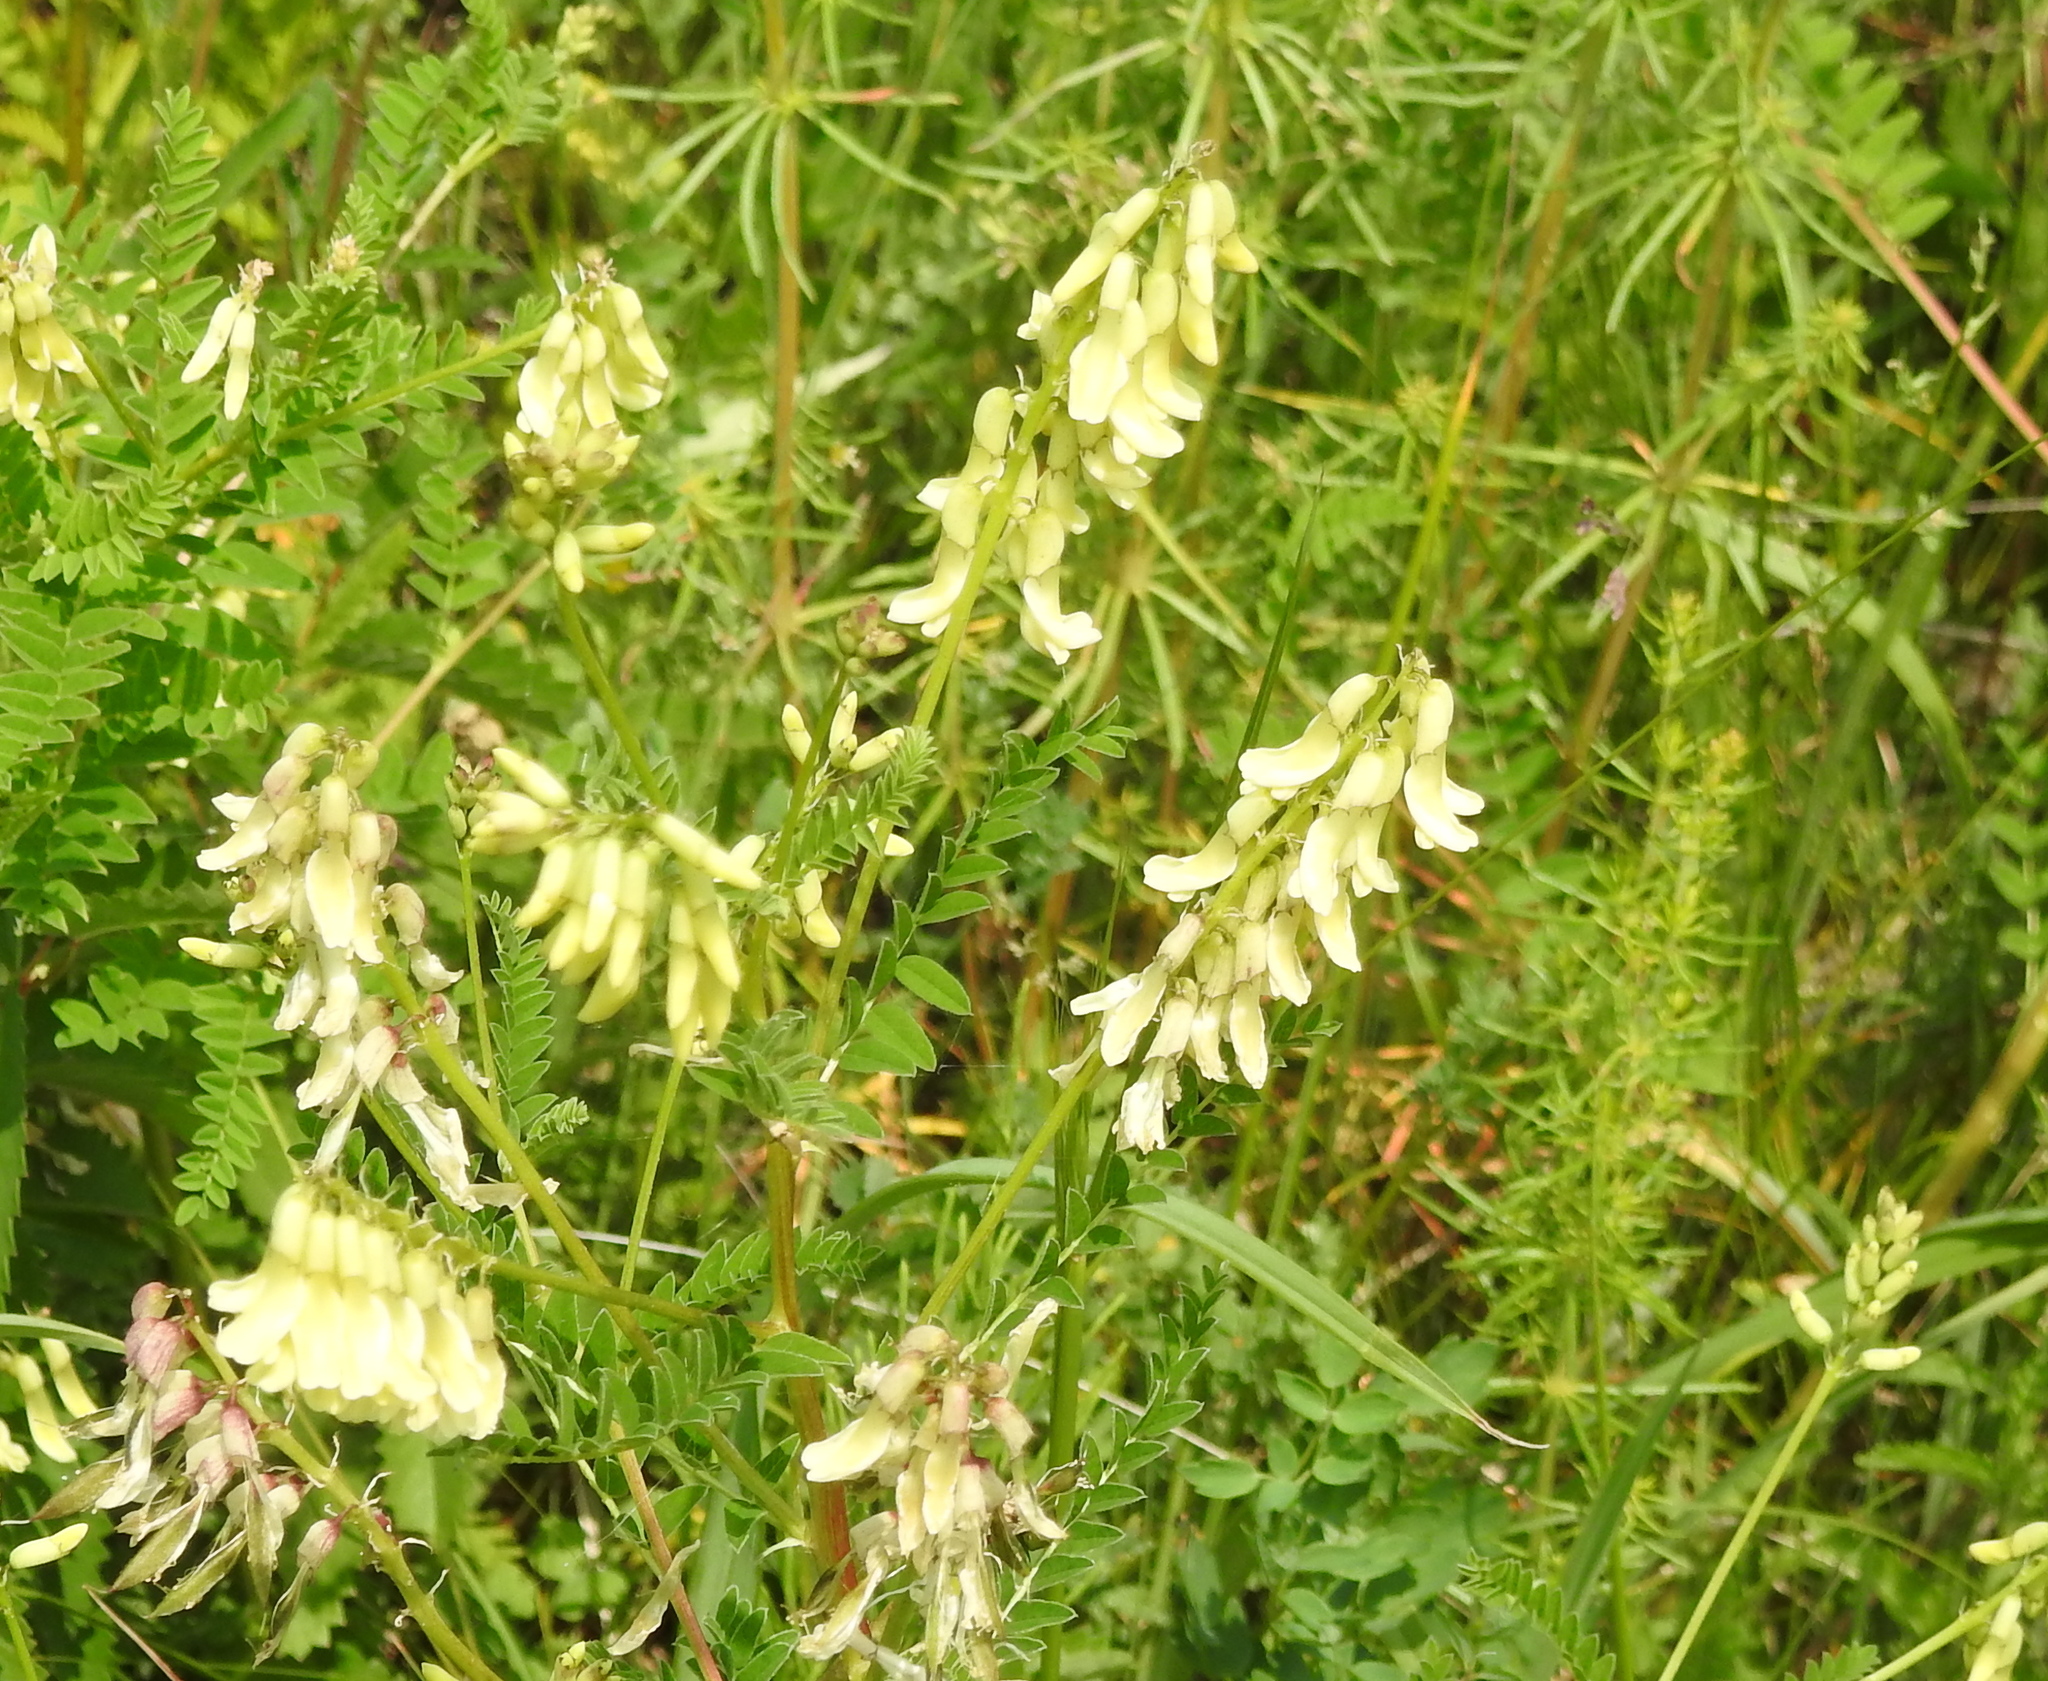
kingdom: Plantae
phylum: Tracheophyta
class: Magnoliopsida
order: Fabales
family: Fabaceae
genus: Astragalus
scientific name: Astragalus
